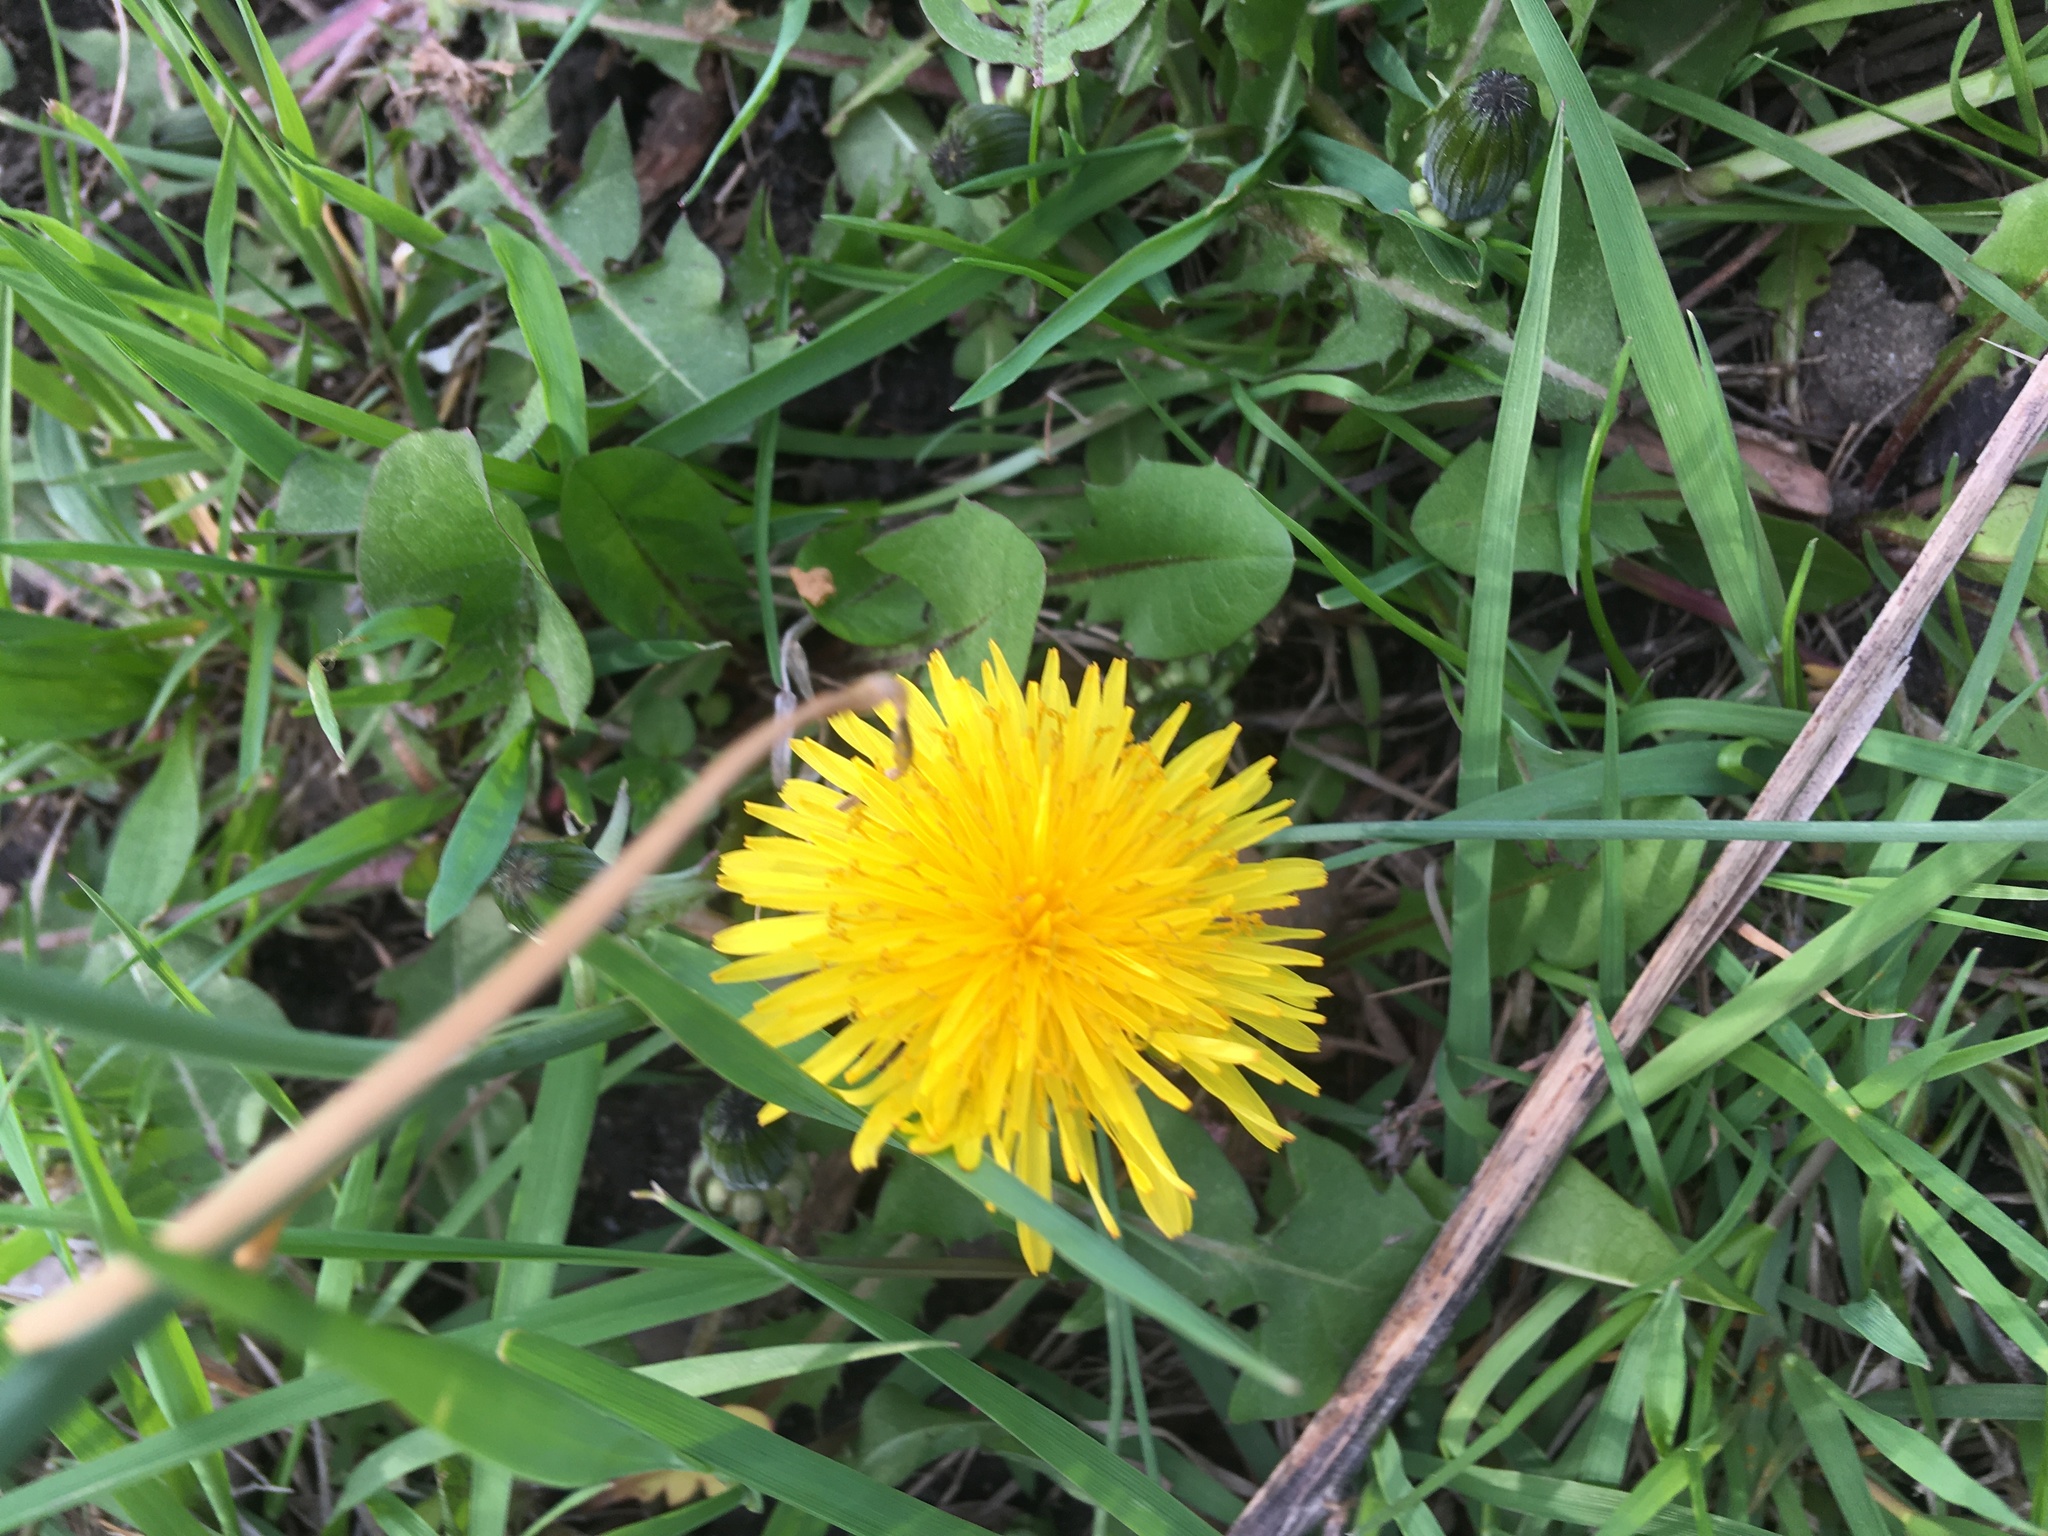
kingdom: Plantae
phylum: Tracheophyta
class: Magnoliopsida
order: Asterales
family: Asteraceae
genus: Taraxacum
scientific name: Taraxacum officinale
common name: Common dandelion
